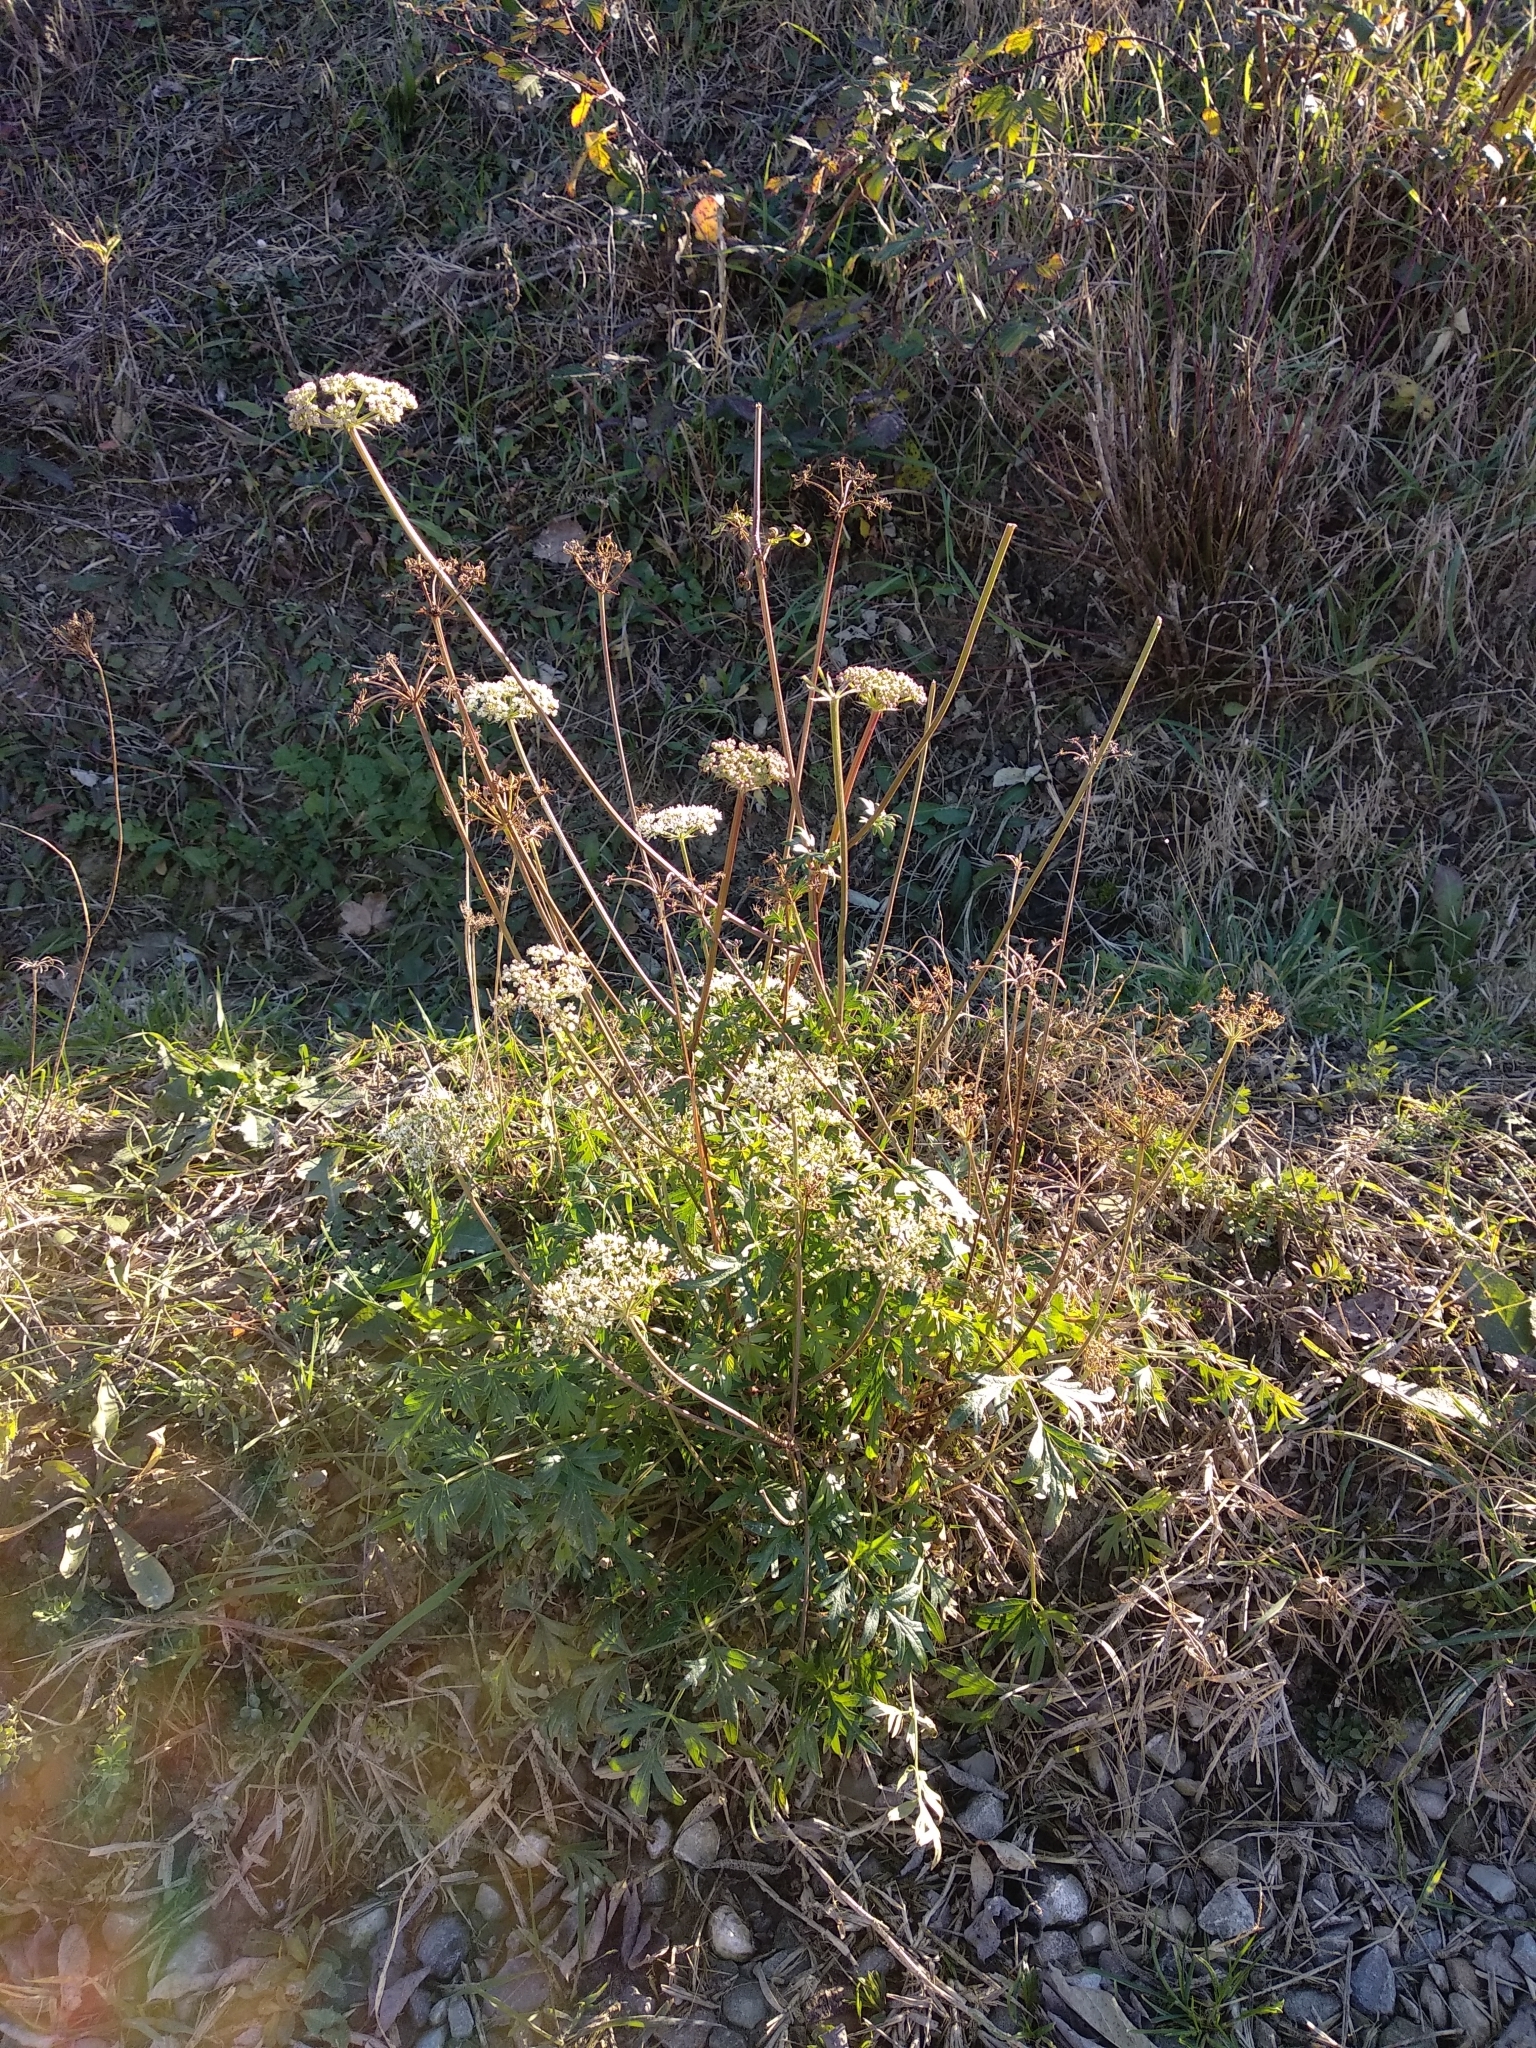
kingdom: Plantae
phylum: Tracheophyta
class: Magnoliopsida
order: Apiales
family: Apiaceae
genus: Xanthoselinum
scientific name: Xanthoselinum alsaticum
